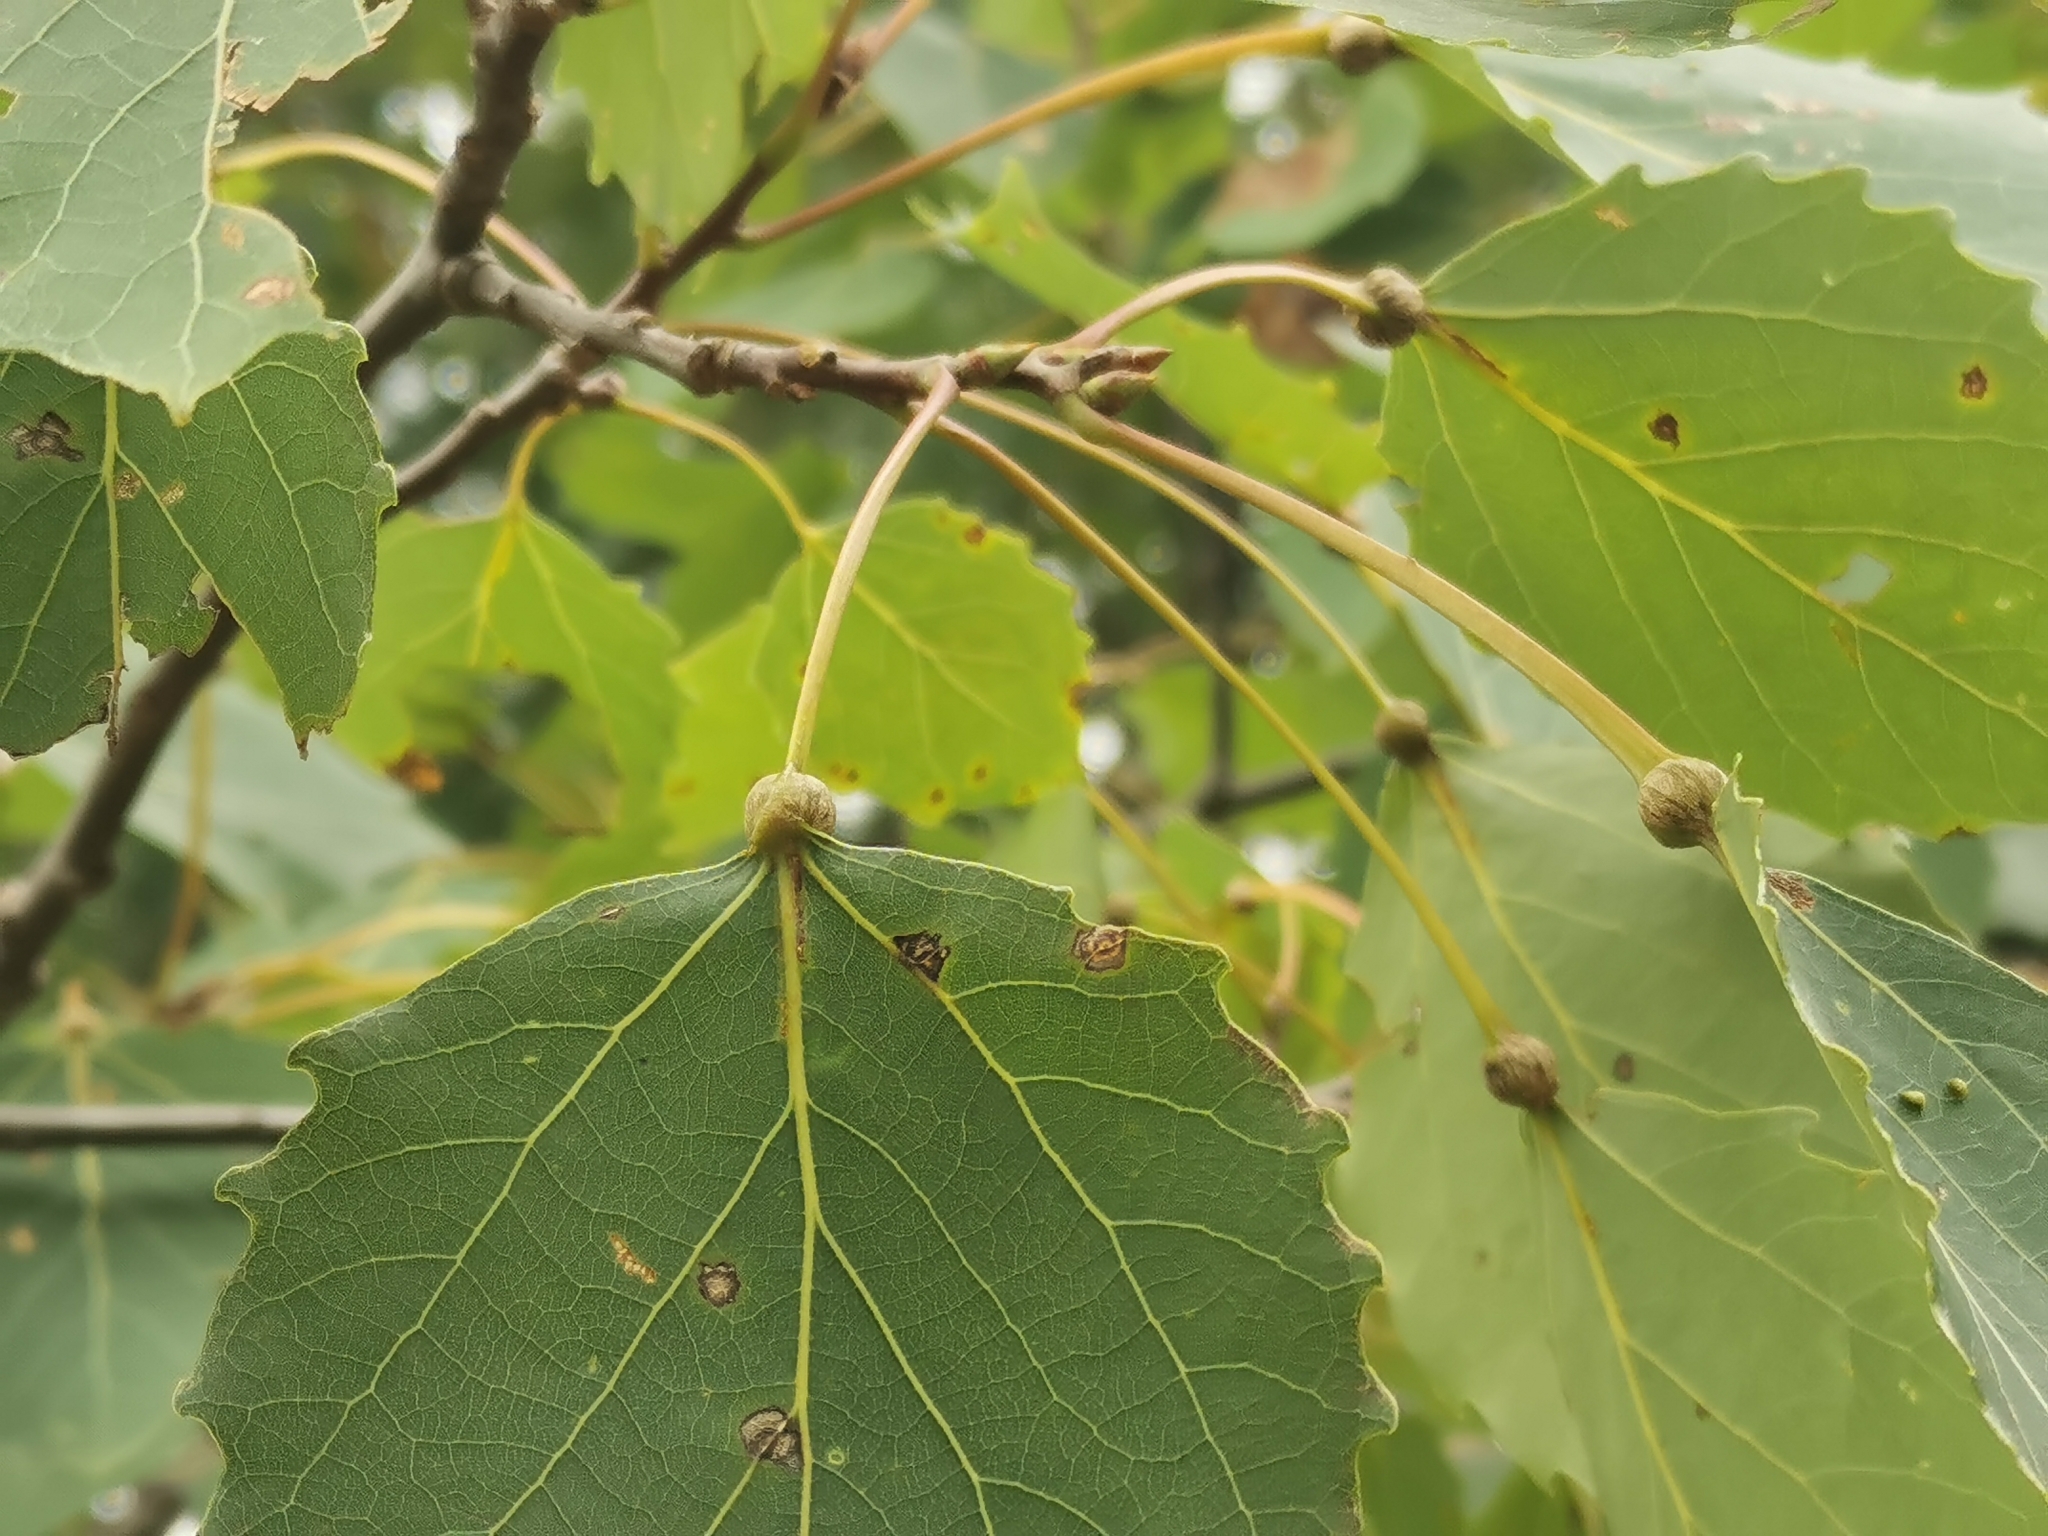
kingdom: Animalia
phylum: Arthropoda
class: Insecta
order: Lepidoptera
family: Nepticulidae
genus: Ectoedemia
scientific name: Ectoedemia populella
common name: Aspen petiole gall moth
